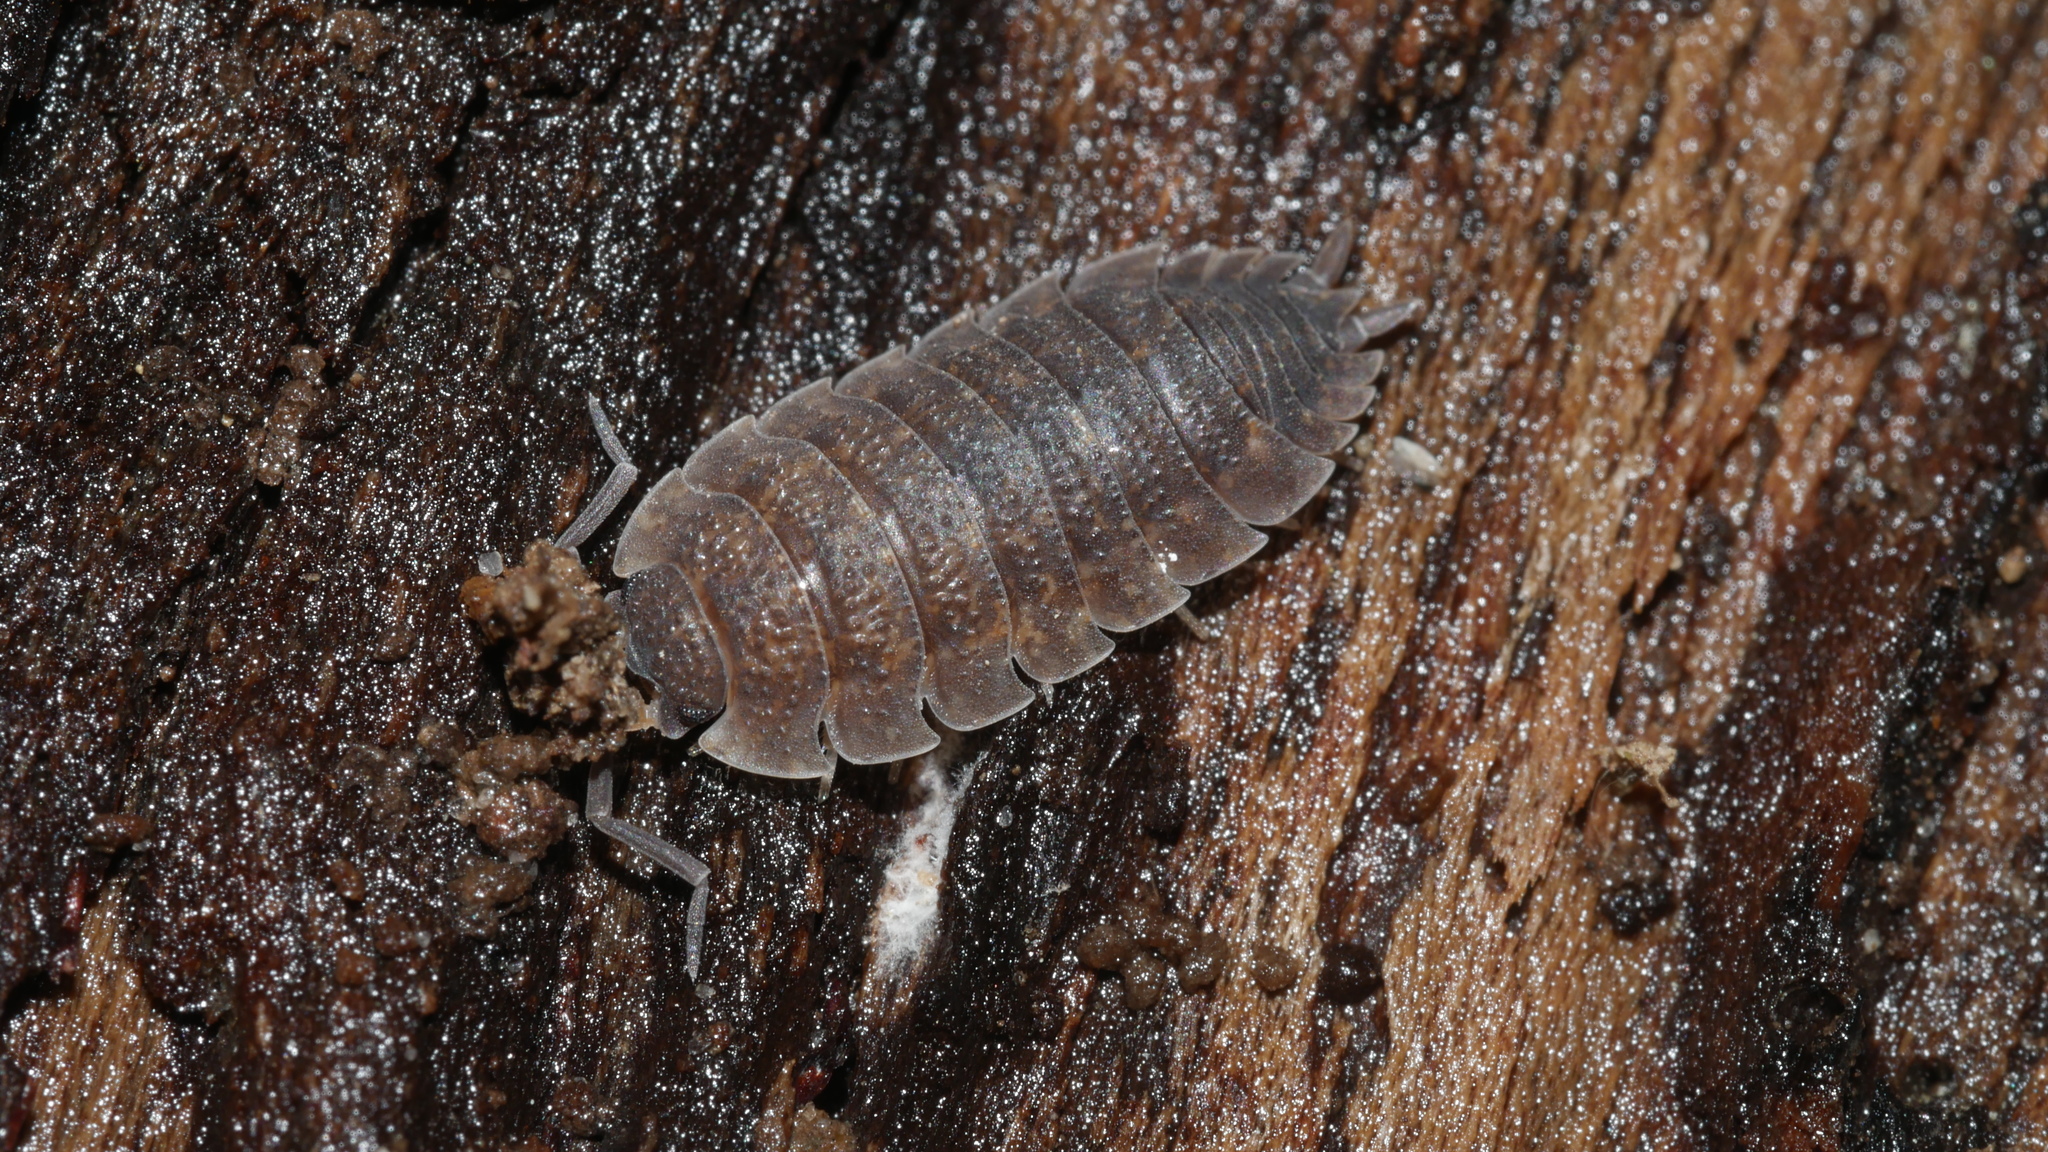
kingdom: Animalia
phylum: Arthropoda
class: Malacostraca
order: Isopoda
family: Porcellionidae
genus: Porcellio
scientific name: Porcellio scaber
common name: Common rough woodlouse
